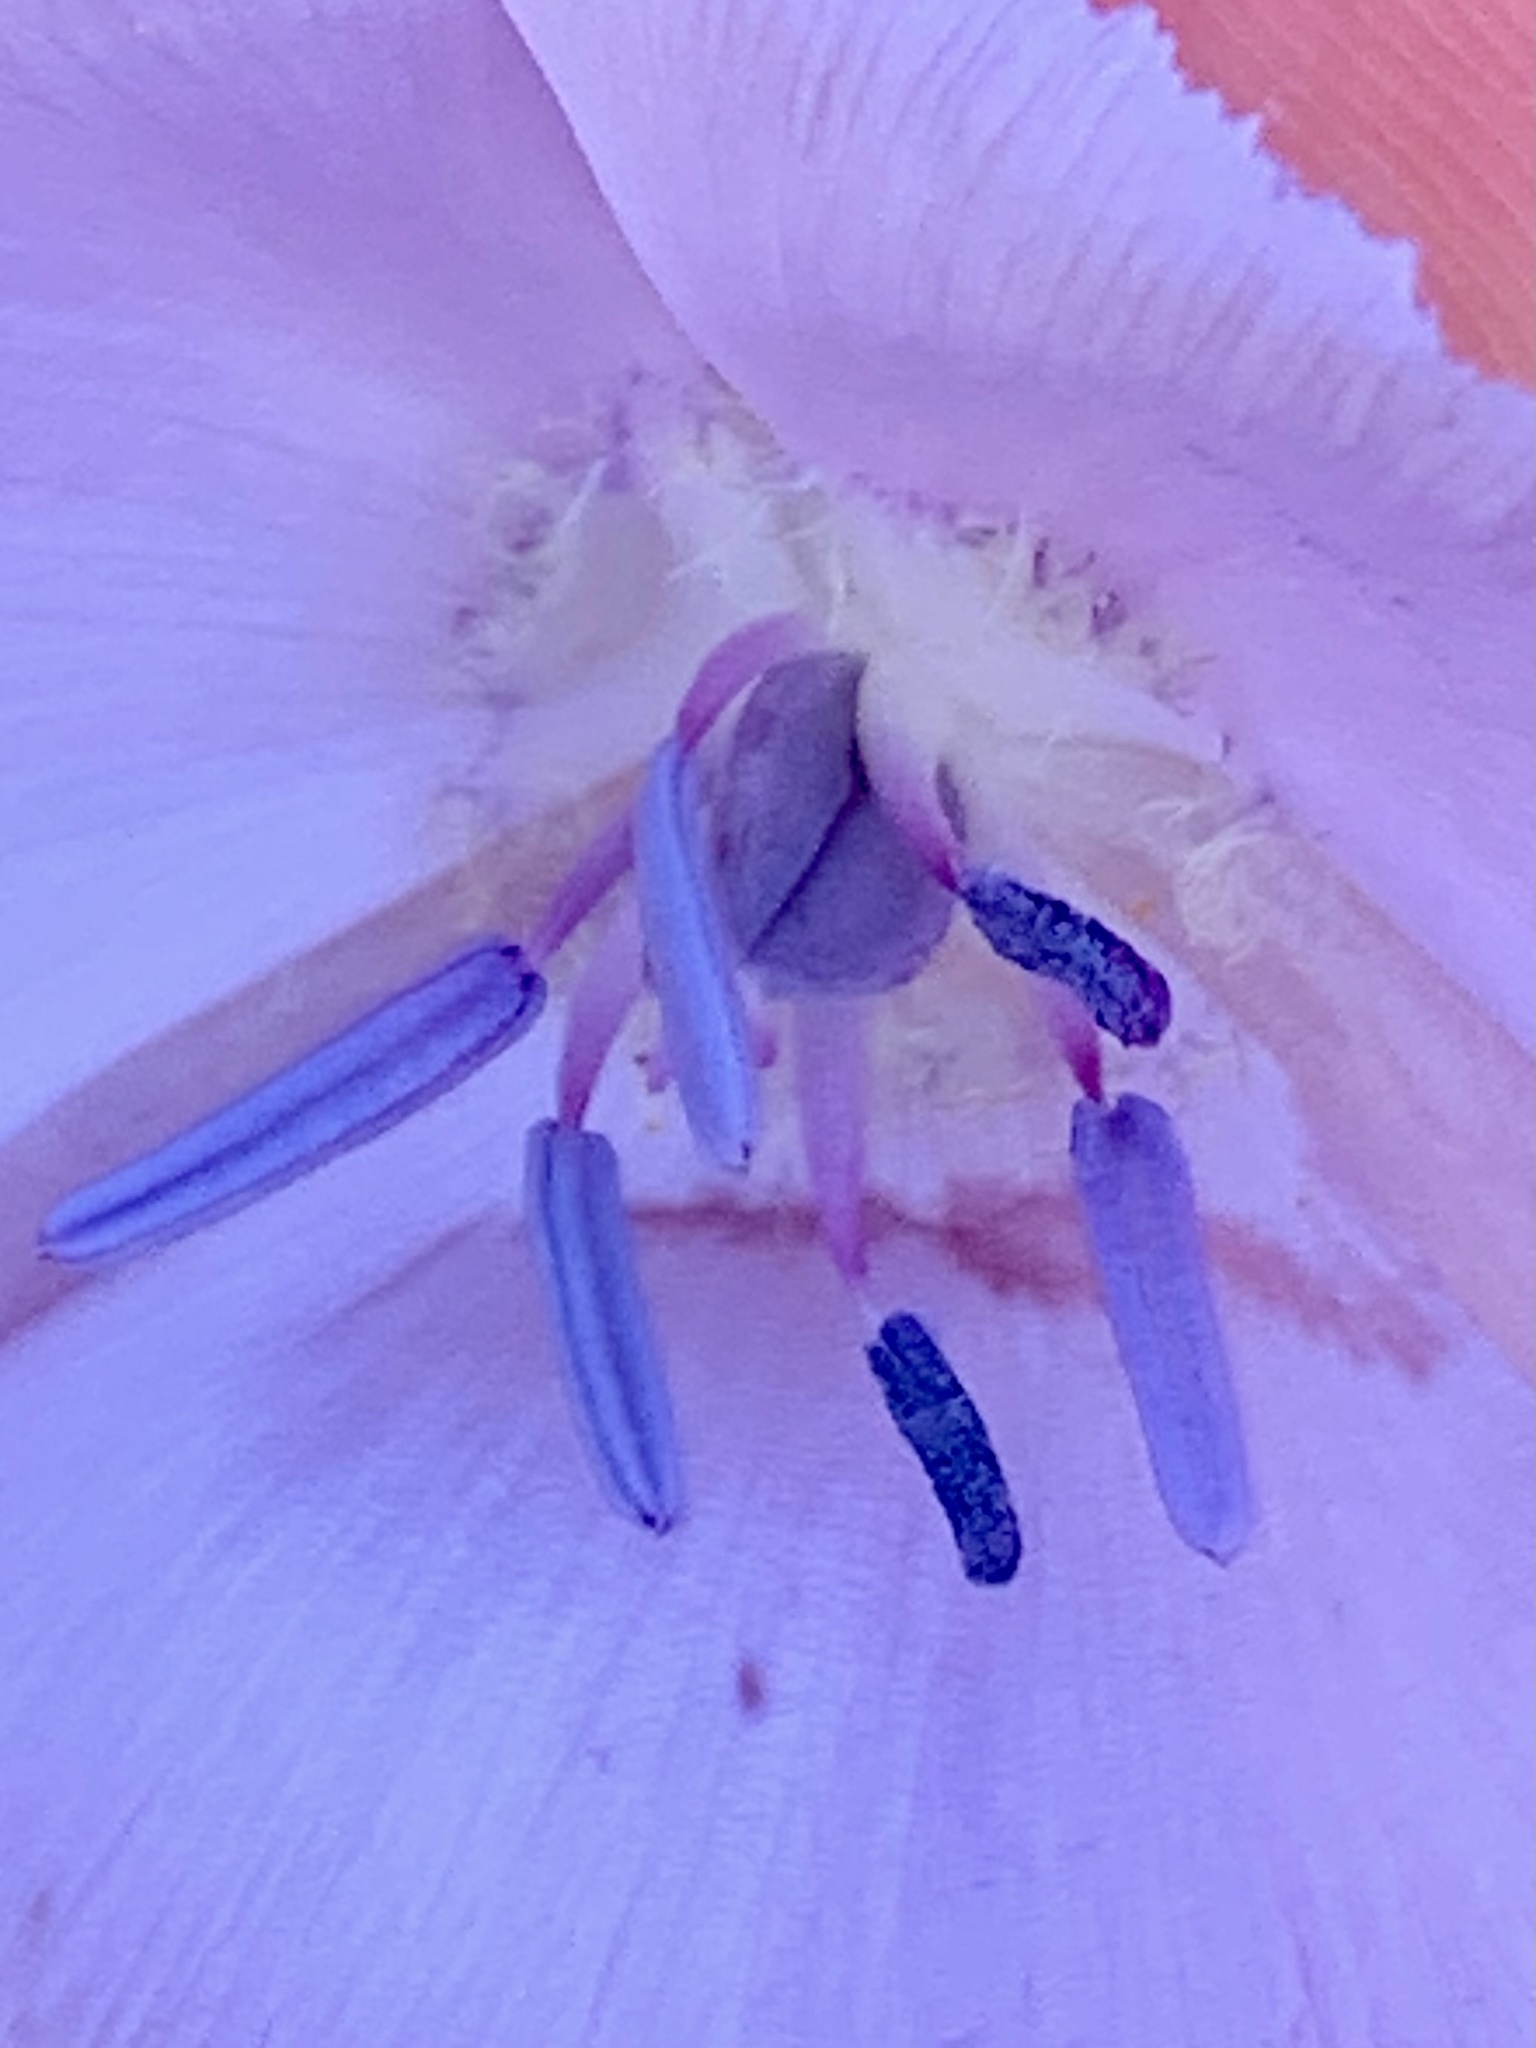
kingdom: Plantae
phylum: Tracheophyta
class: Liliopsida
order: Liliales
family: Liliaceae
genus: Calochortus
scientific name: Calochortus uniflorus
